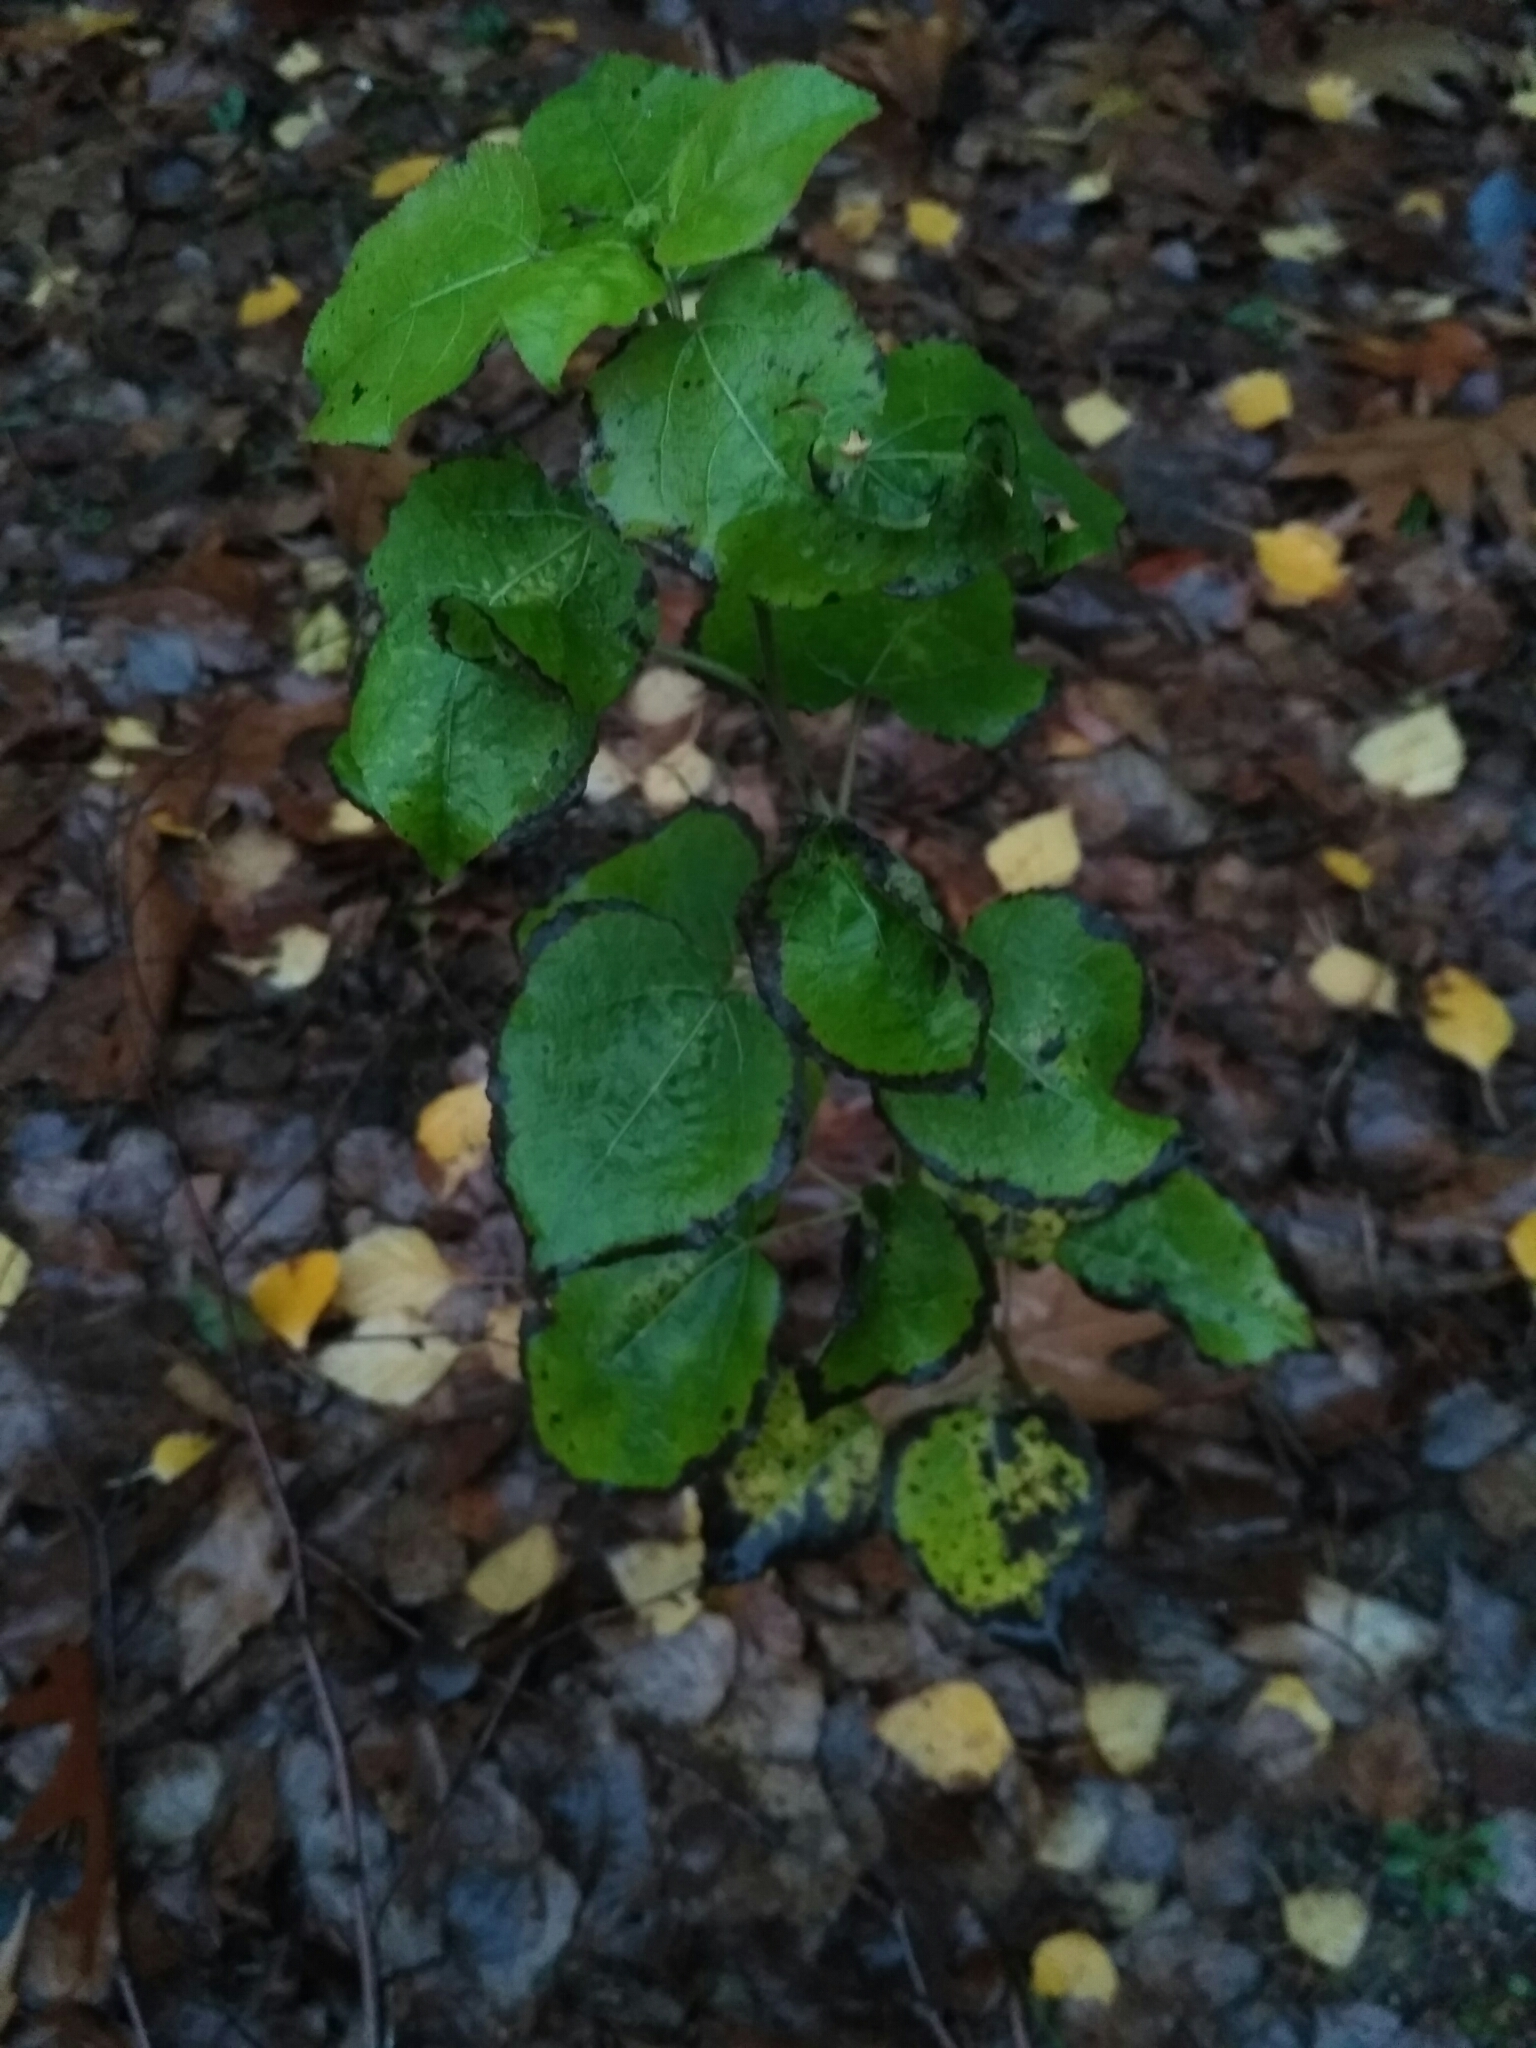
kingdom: Plantae
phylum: Tracheophyta
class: Magnoliopsida
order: Malpighiales
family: Salicaceae
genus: Populus
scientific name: Populus tremula
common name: European aspen
